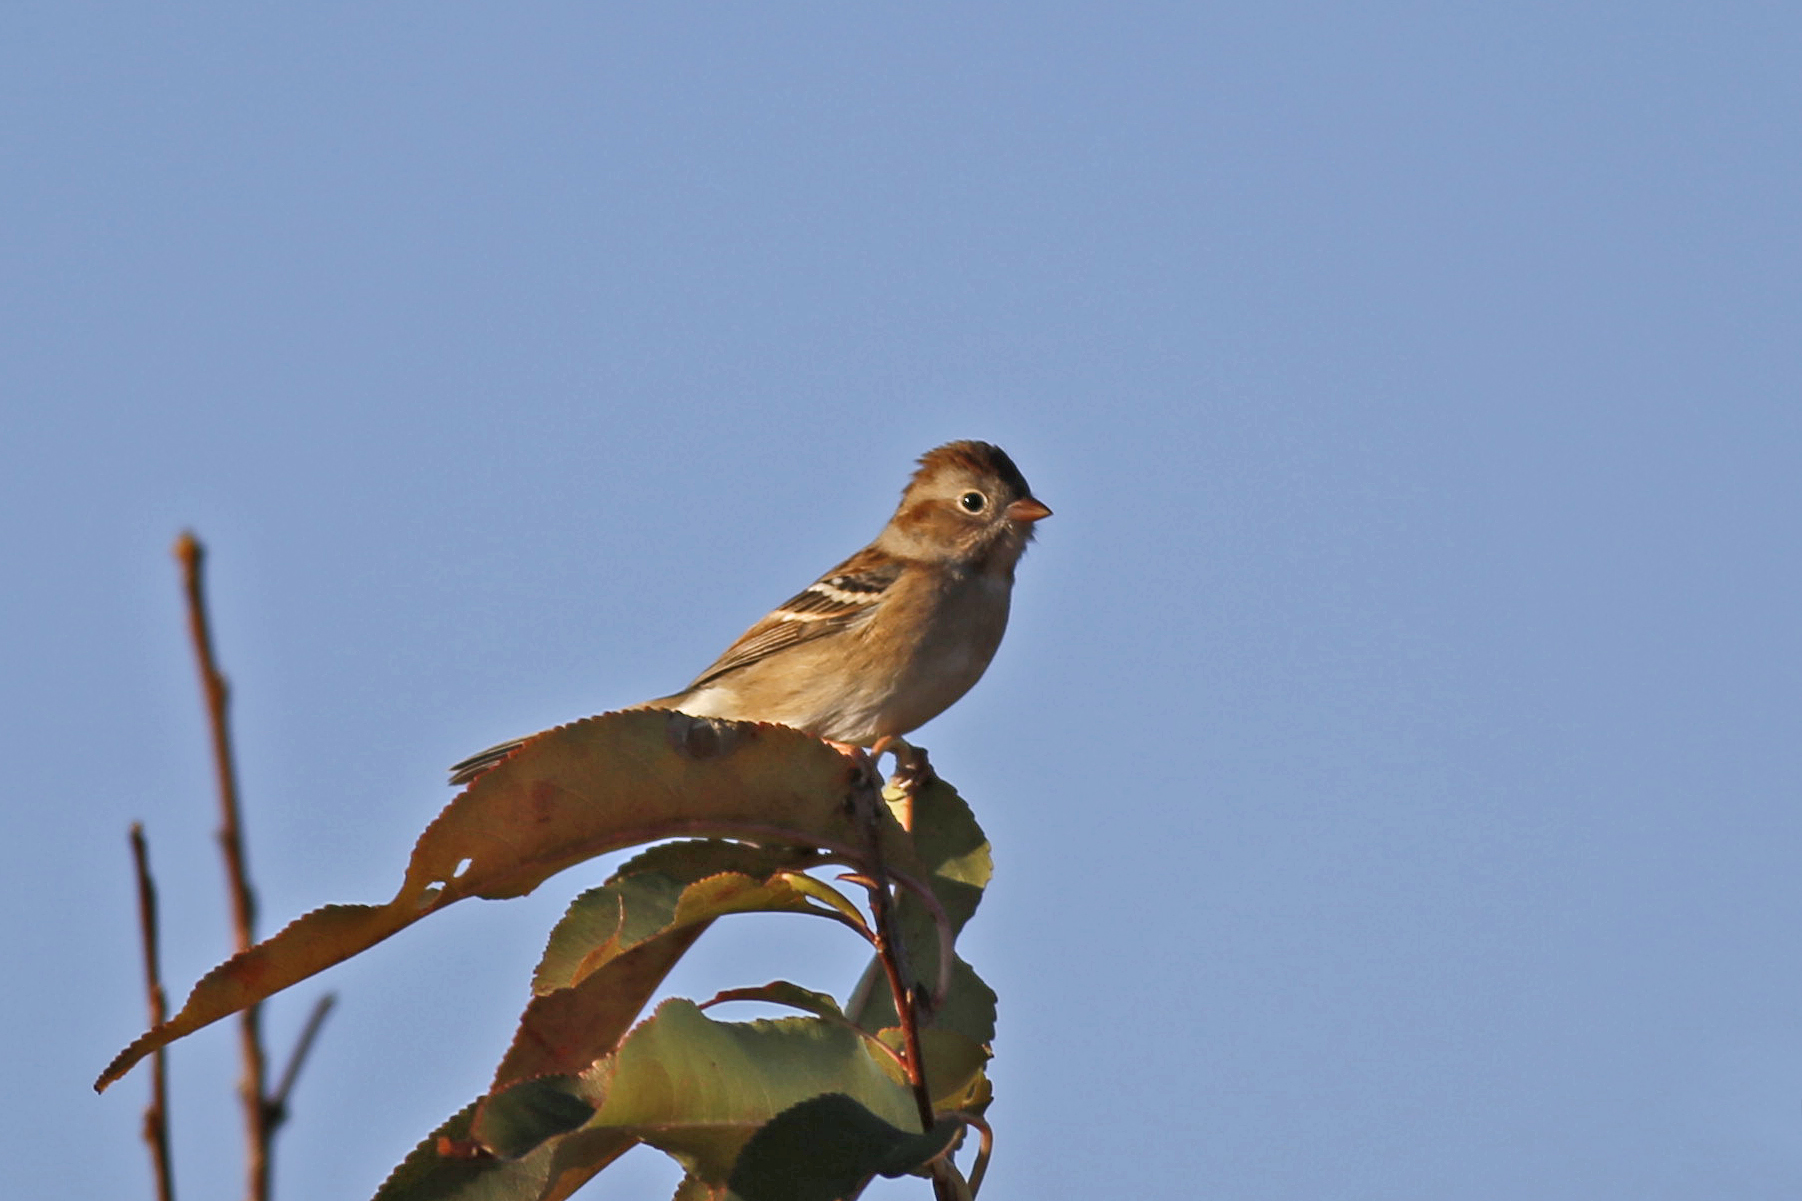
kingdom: Animalia
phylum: Chordata
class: Aves
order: Passeriformes
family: Passerellidae
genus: Spizella
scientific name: Spizella pusilla
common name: Field sparrow
